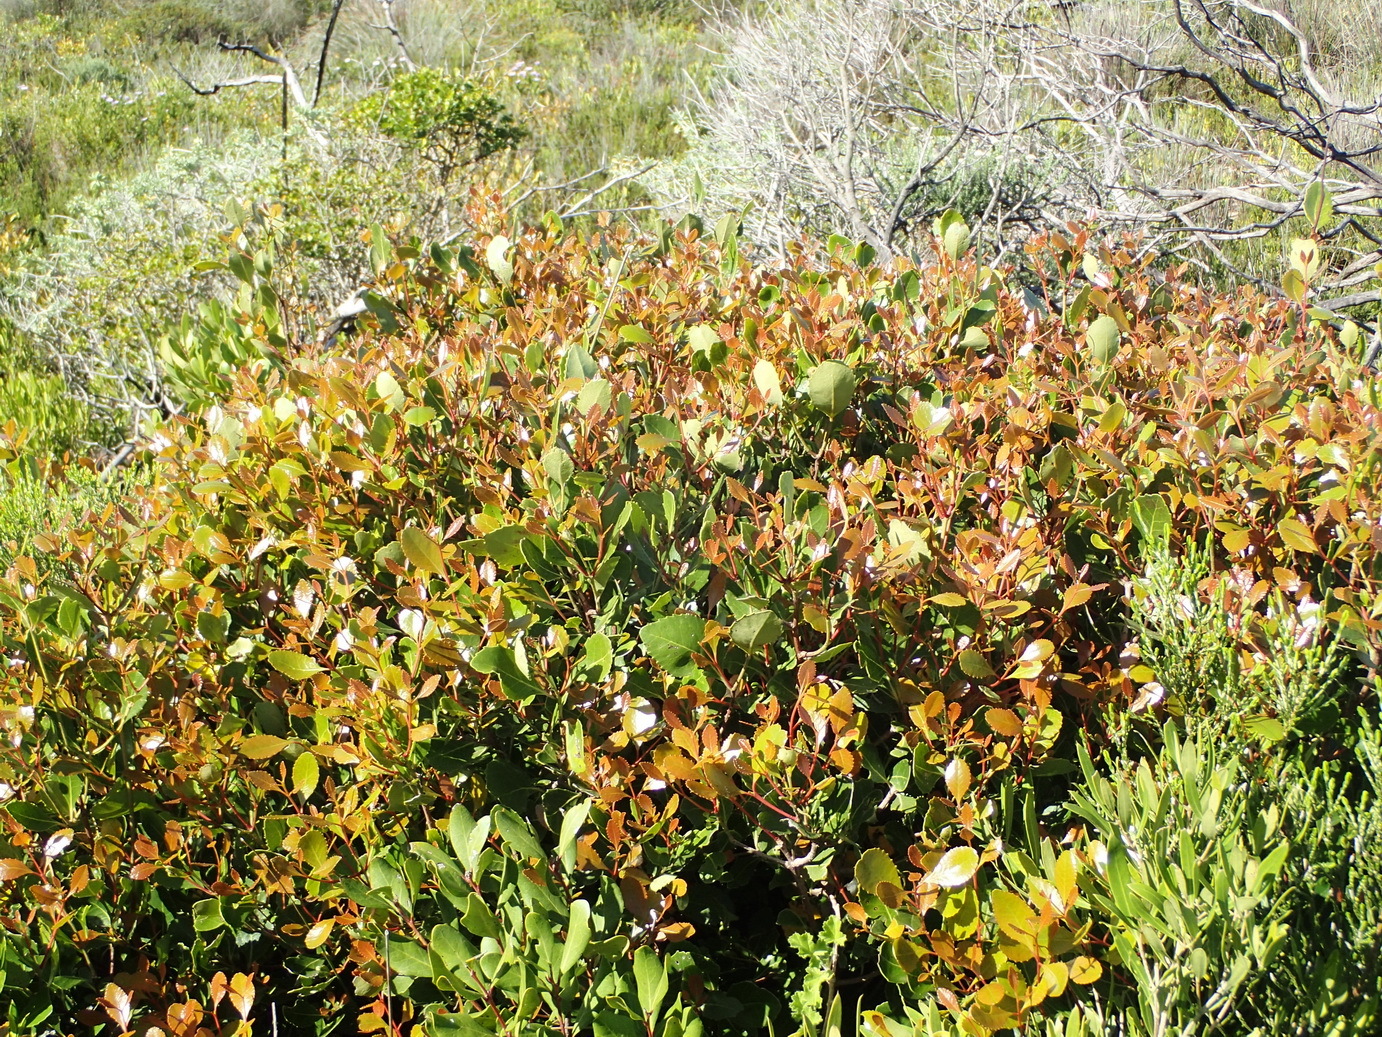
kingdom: Plantae
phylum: Tracheophyta
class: Magnoliopsida
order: Celastrales
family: Celastraceae
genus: Cassine
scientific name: Cassine peragua
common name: Cape saffron
